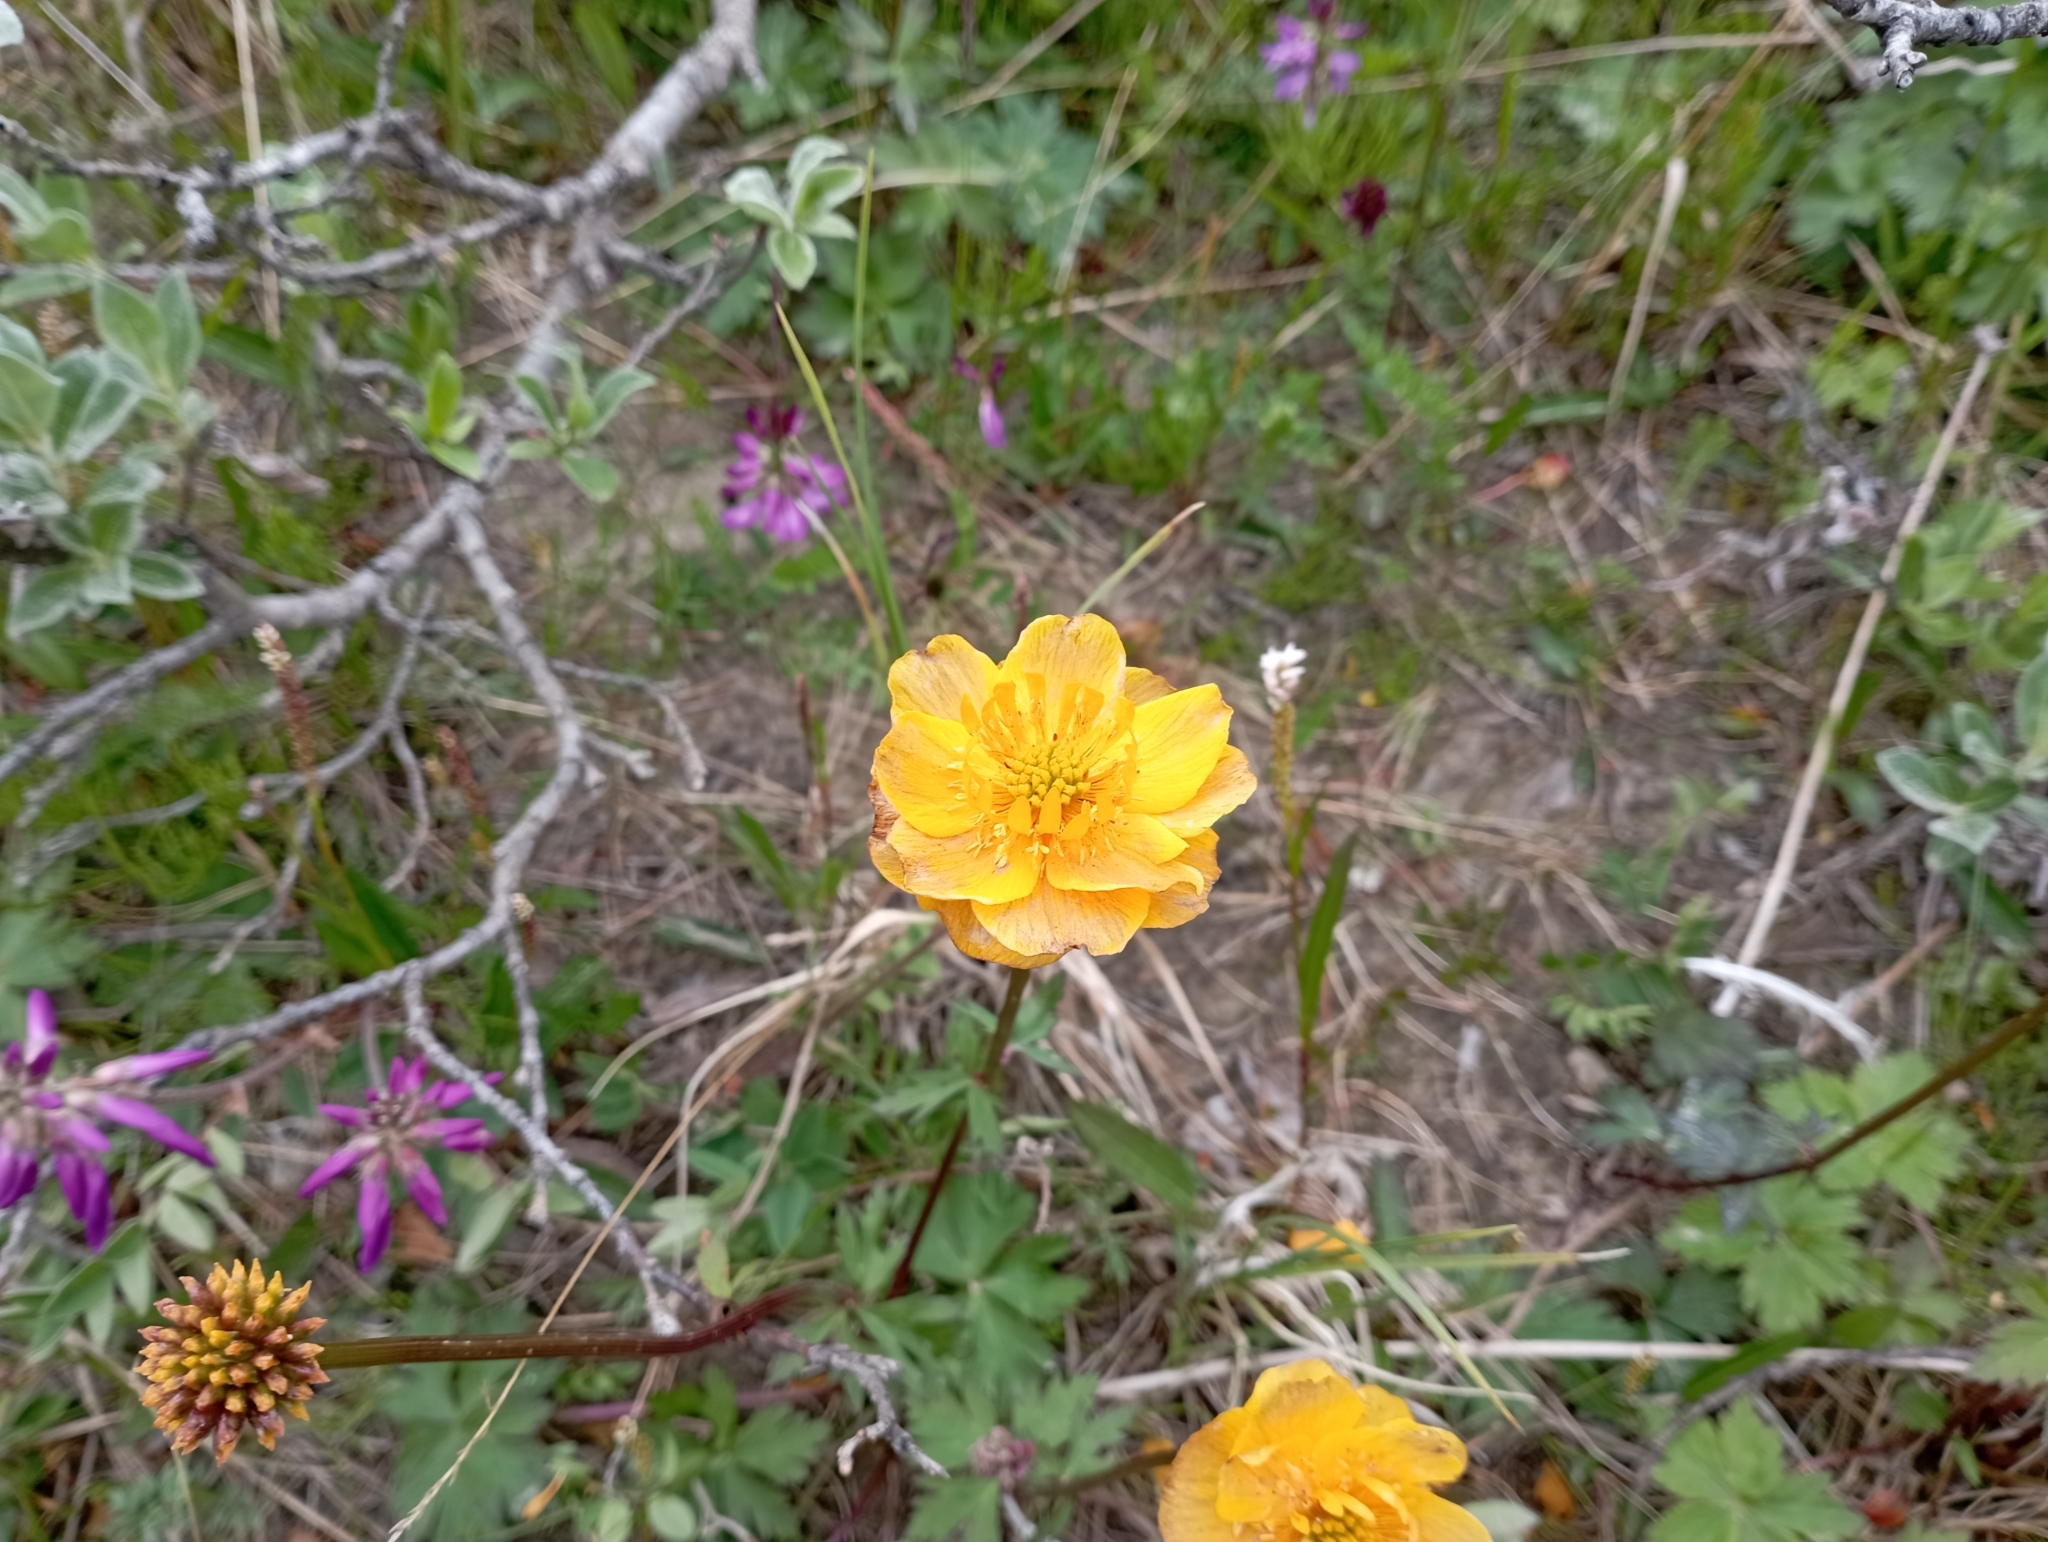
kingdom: Plantae
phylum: Tracheophyta
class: Magnoliopsida
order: Ranunculales
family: Ranunculaceae
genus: Trollius
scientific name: Trollius asiaticus
